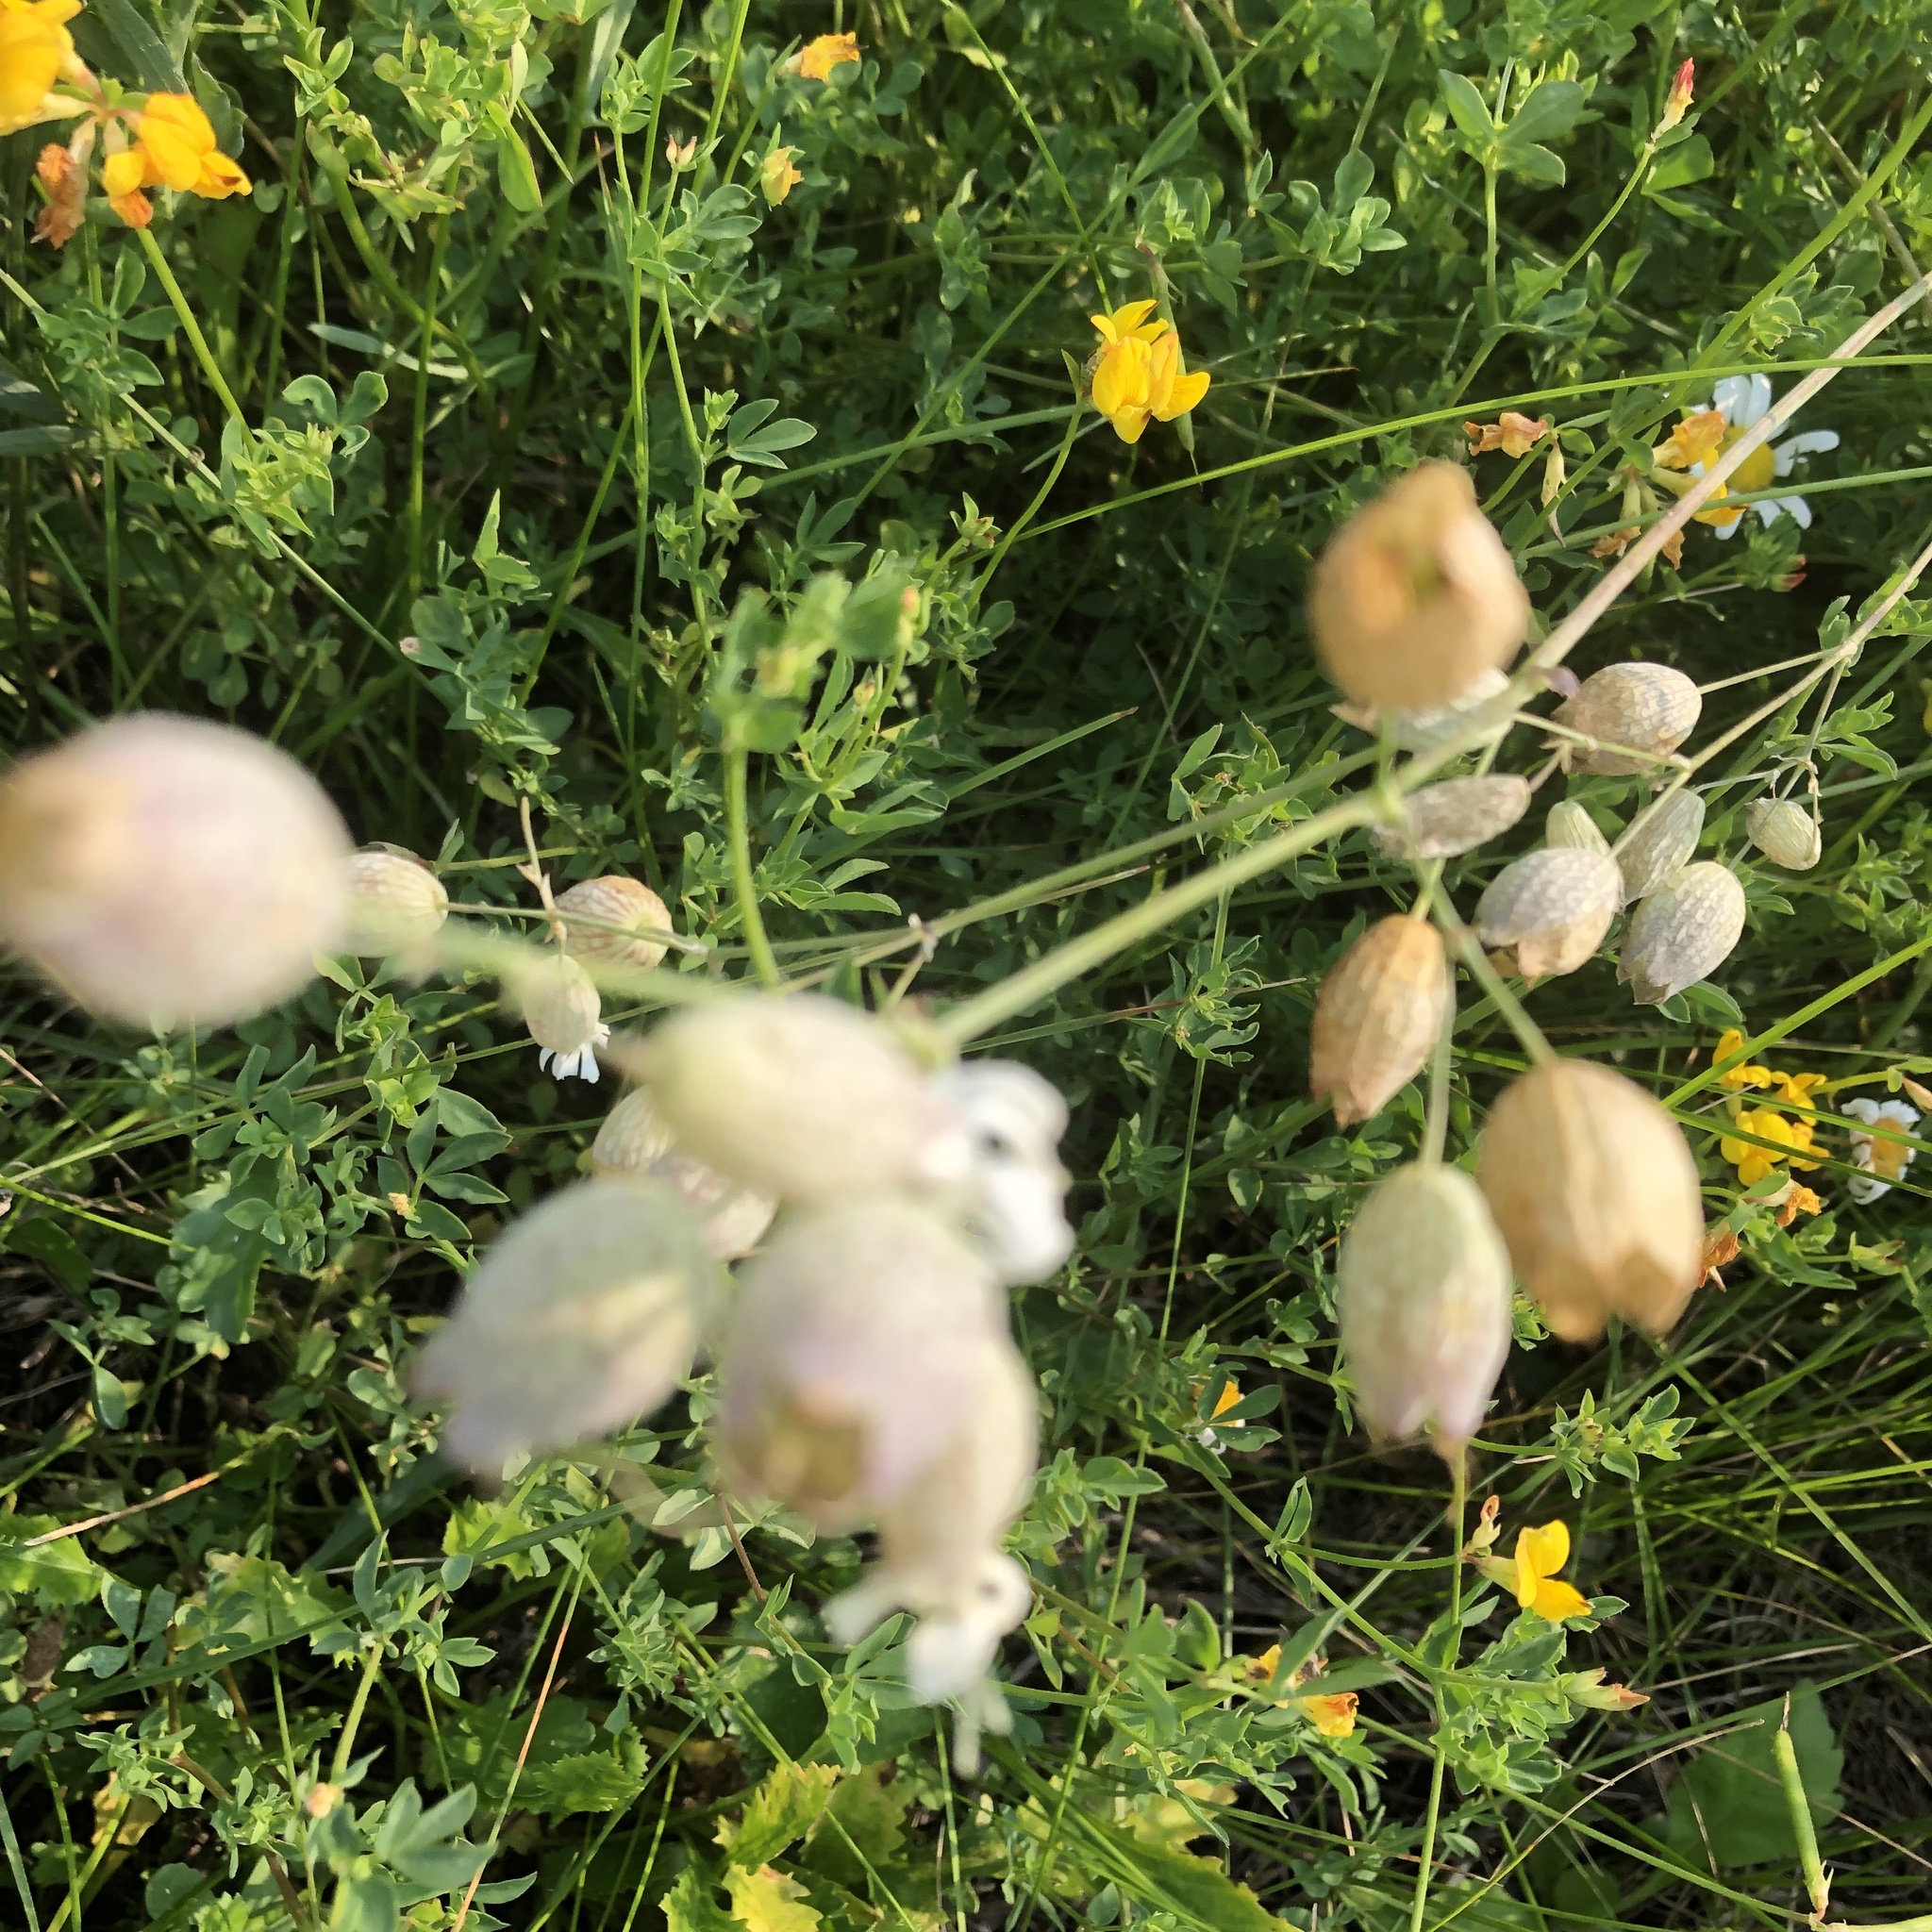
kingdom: Plantae
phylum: Tracheophyta
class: Magnoliopsida
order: Caryophyllales
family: Caryophyllaceae
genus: Silene
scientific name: Silene vulgaris
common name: Bladder campion
